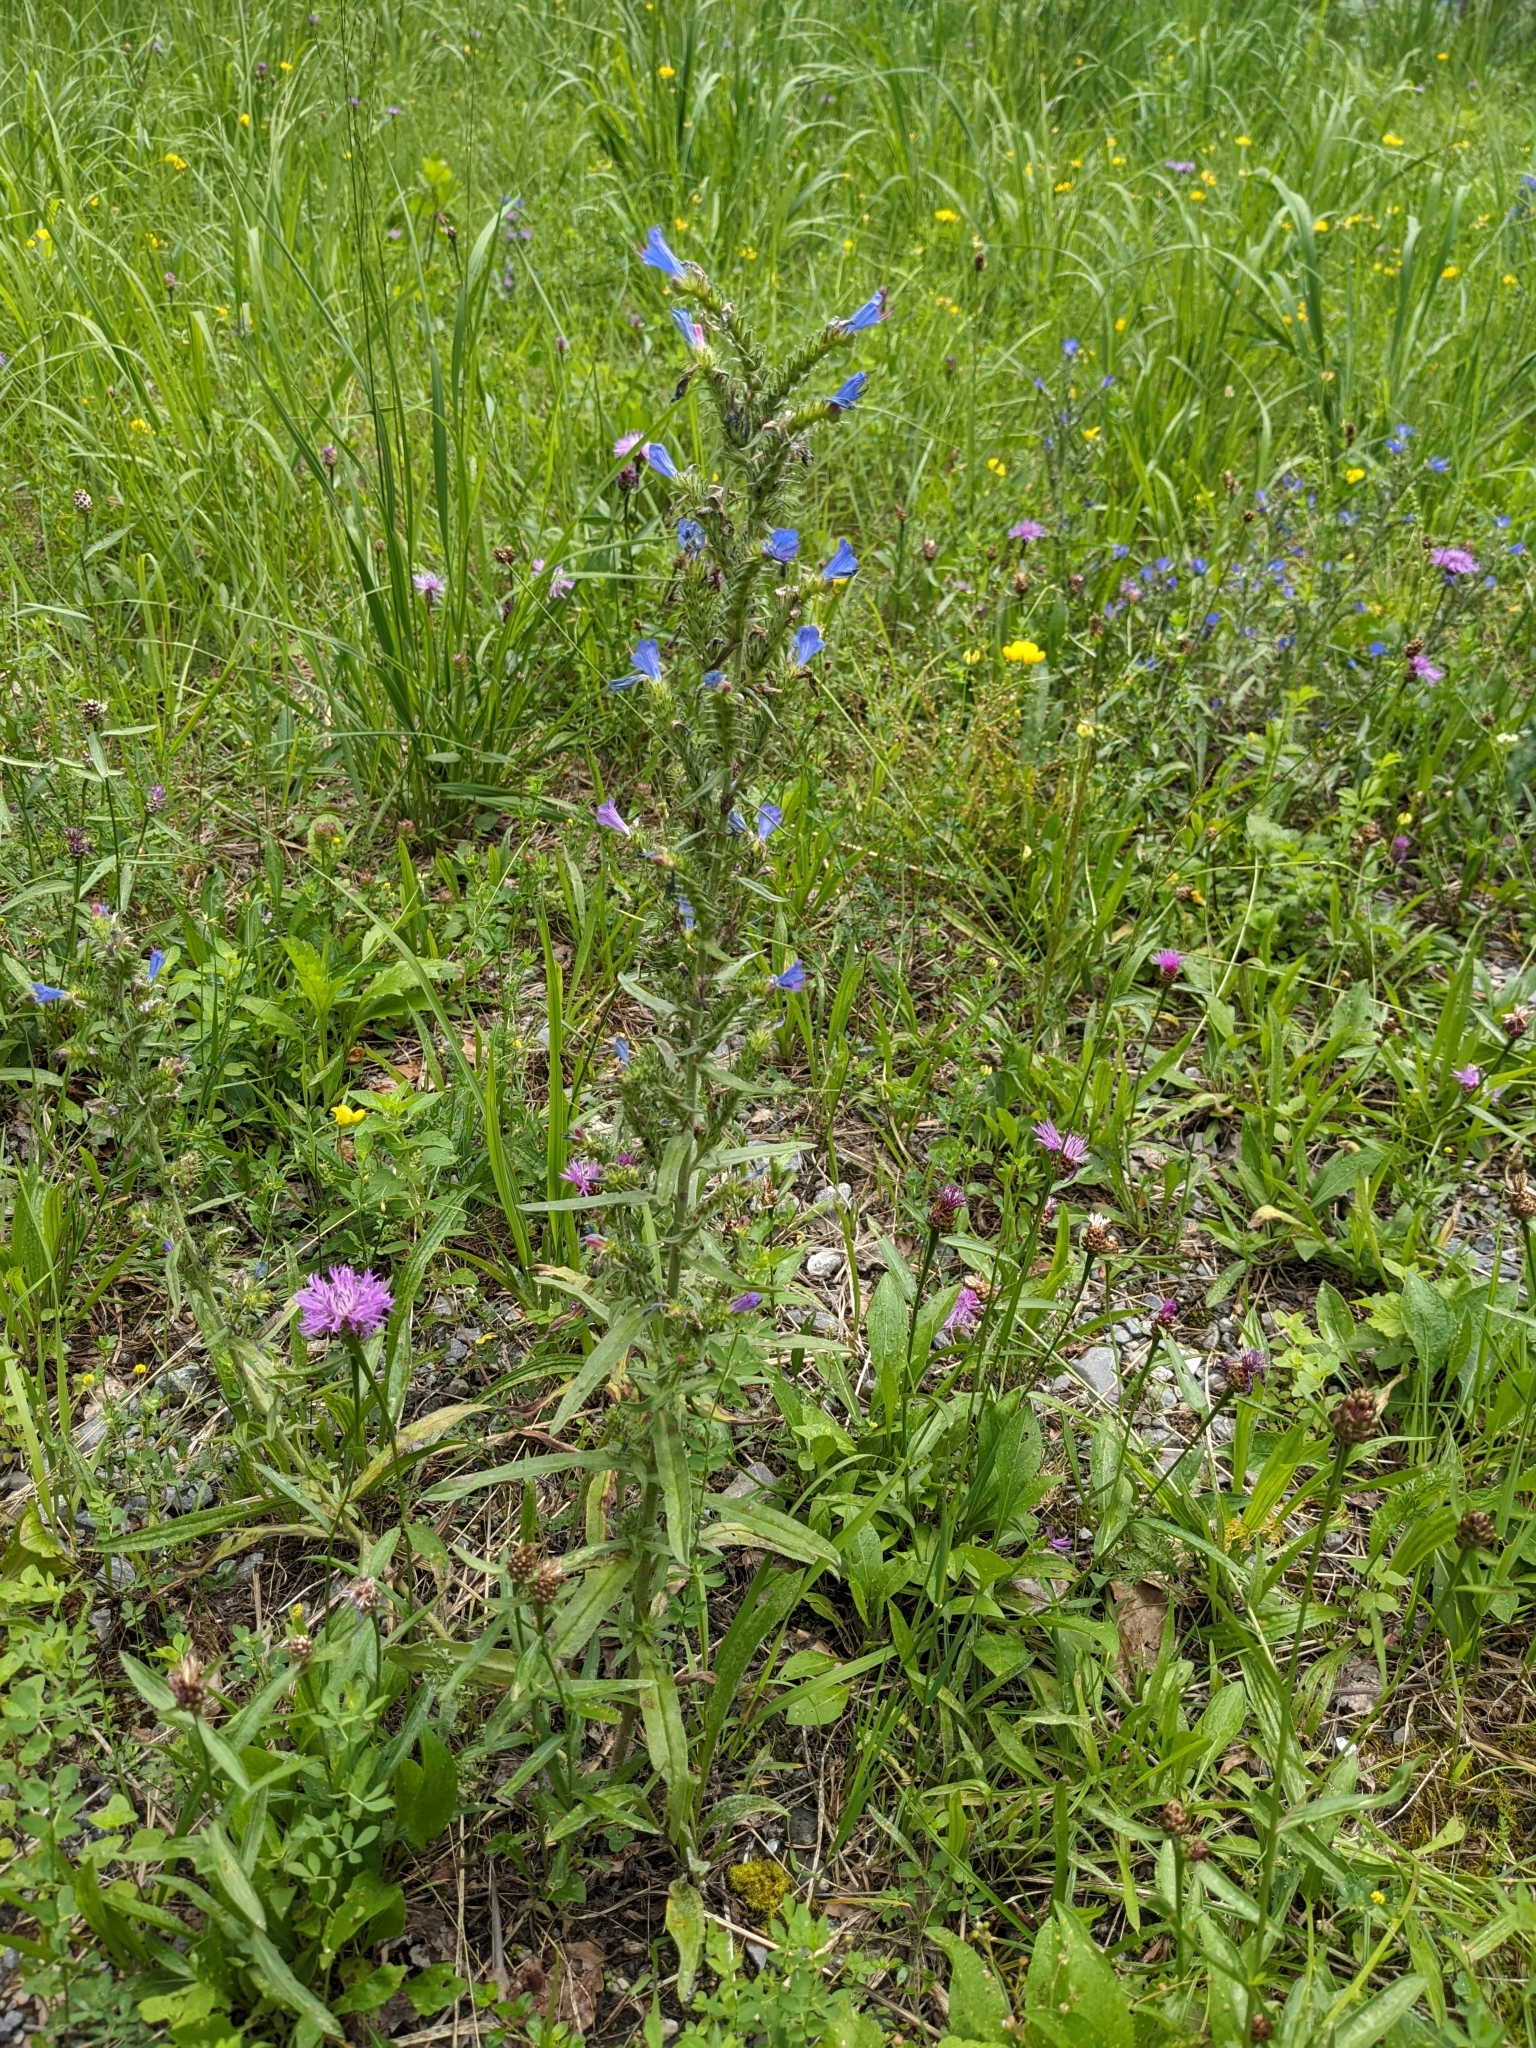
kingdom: Plantae
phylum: Tracheophyta
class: Magnoliopsida
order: Boraginales
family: Boraginaceae
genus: Echium
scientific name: Echium vulgare
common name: Common viper's bugloss
